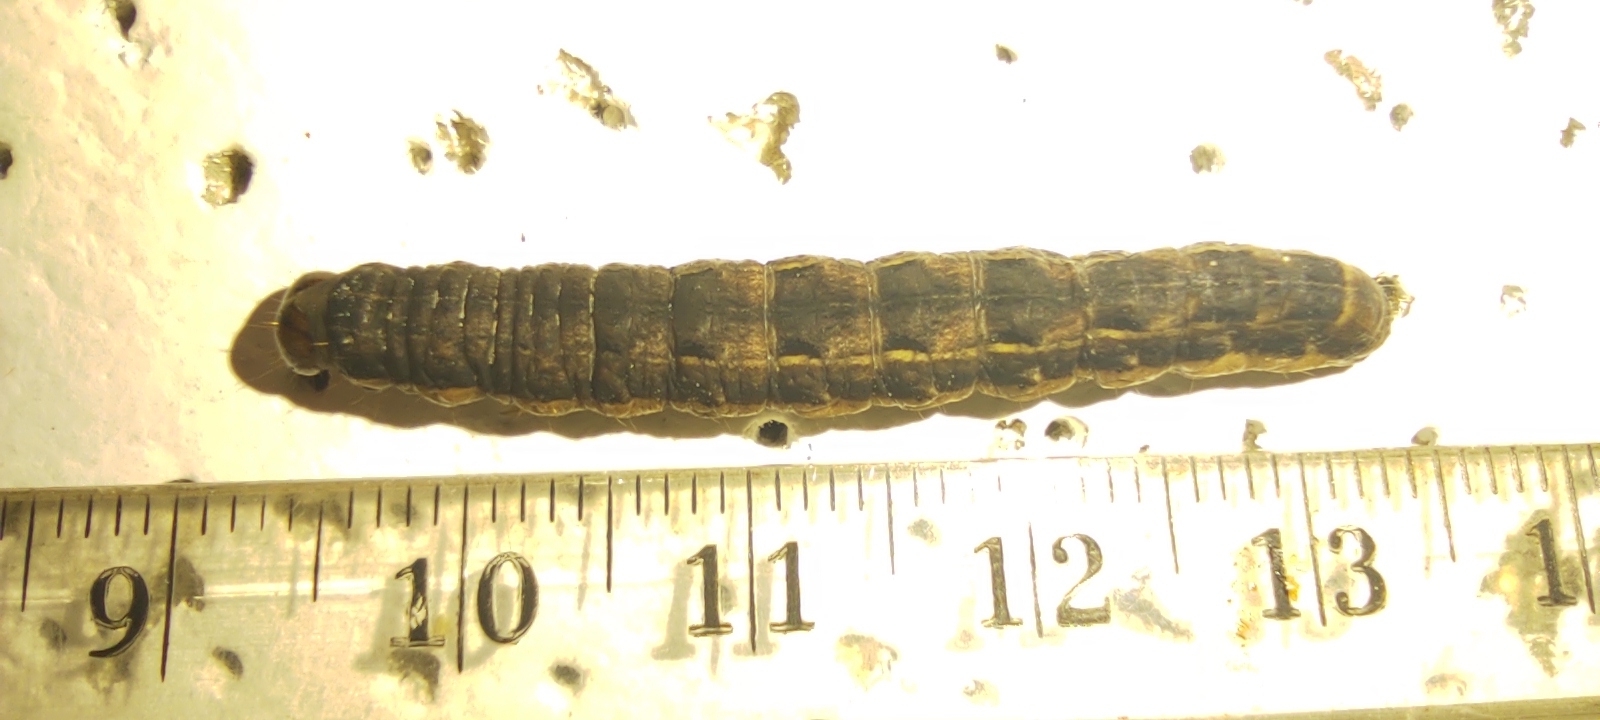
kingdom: Animalia
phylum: Arthropoda
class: Insecta
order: Lepidoptera
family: Noctuidae
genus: Noctua
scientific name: Noctua pronuba
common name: Large yellow underwing
